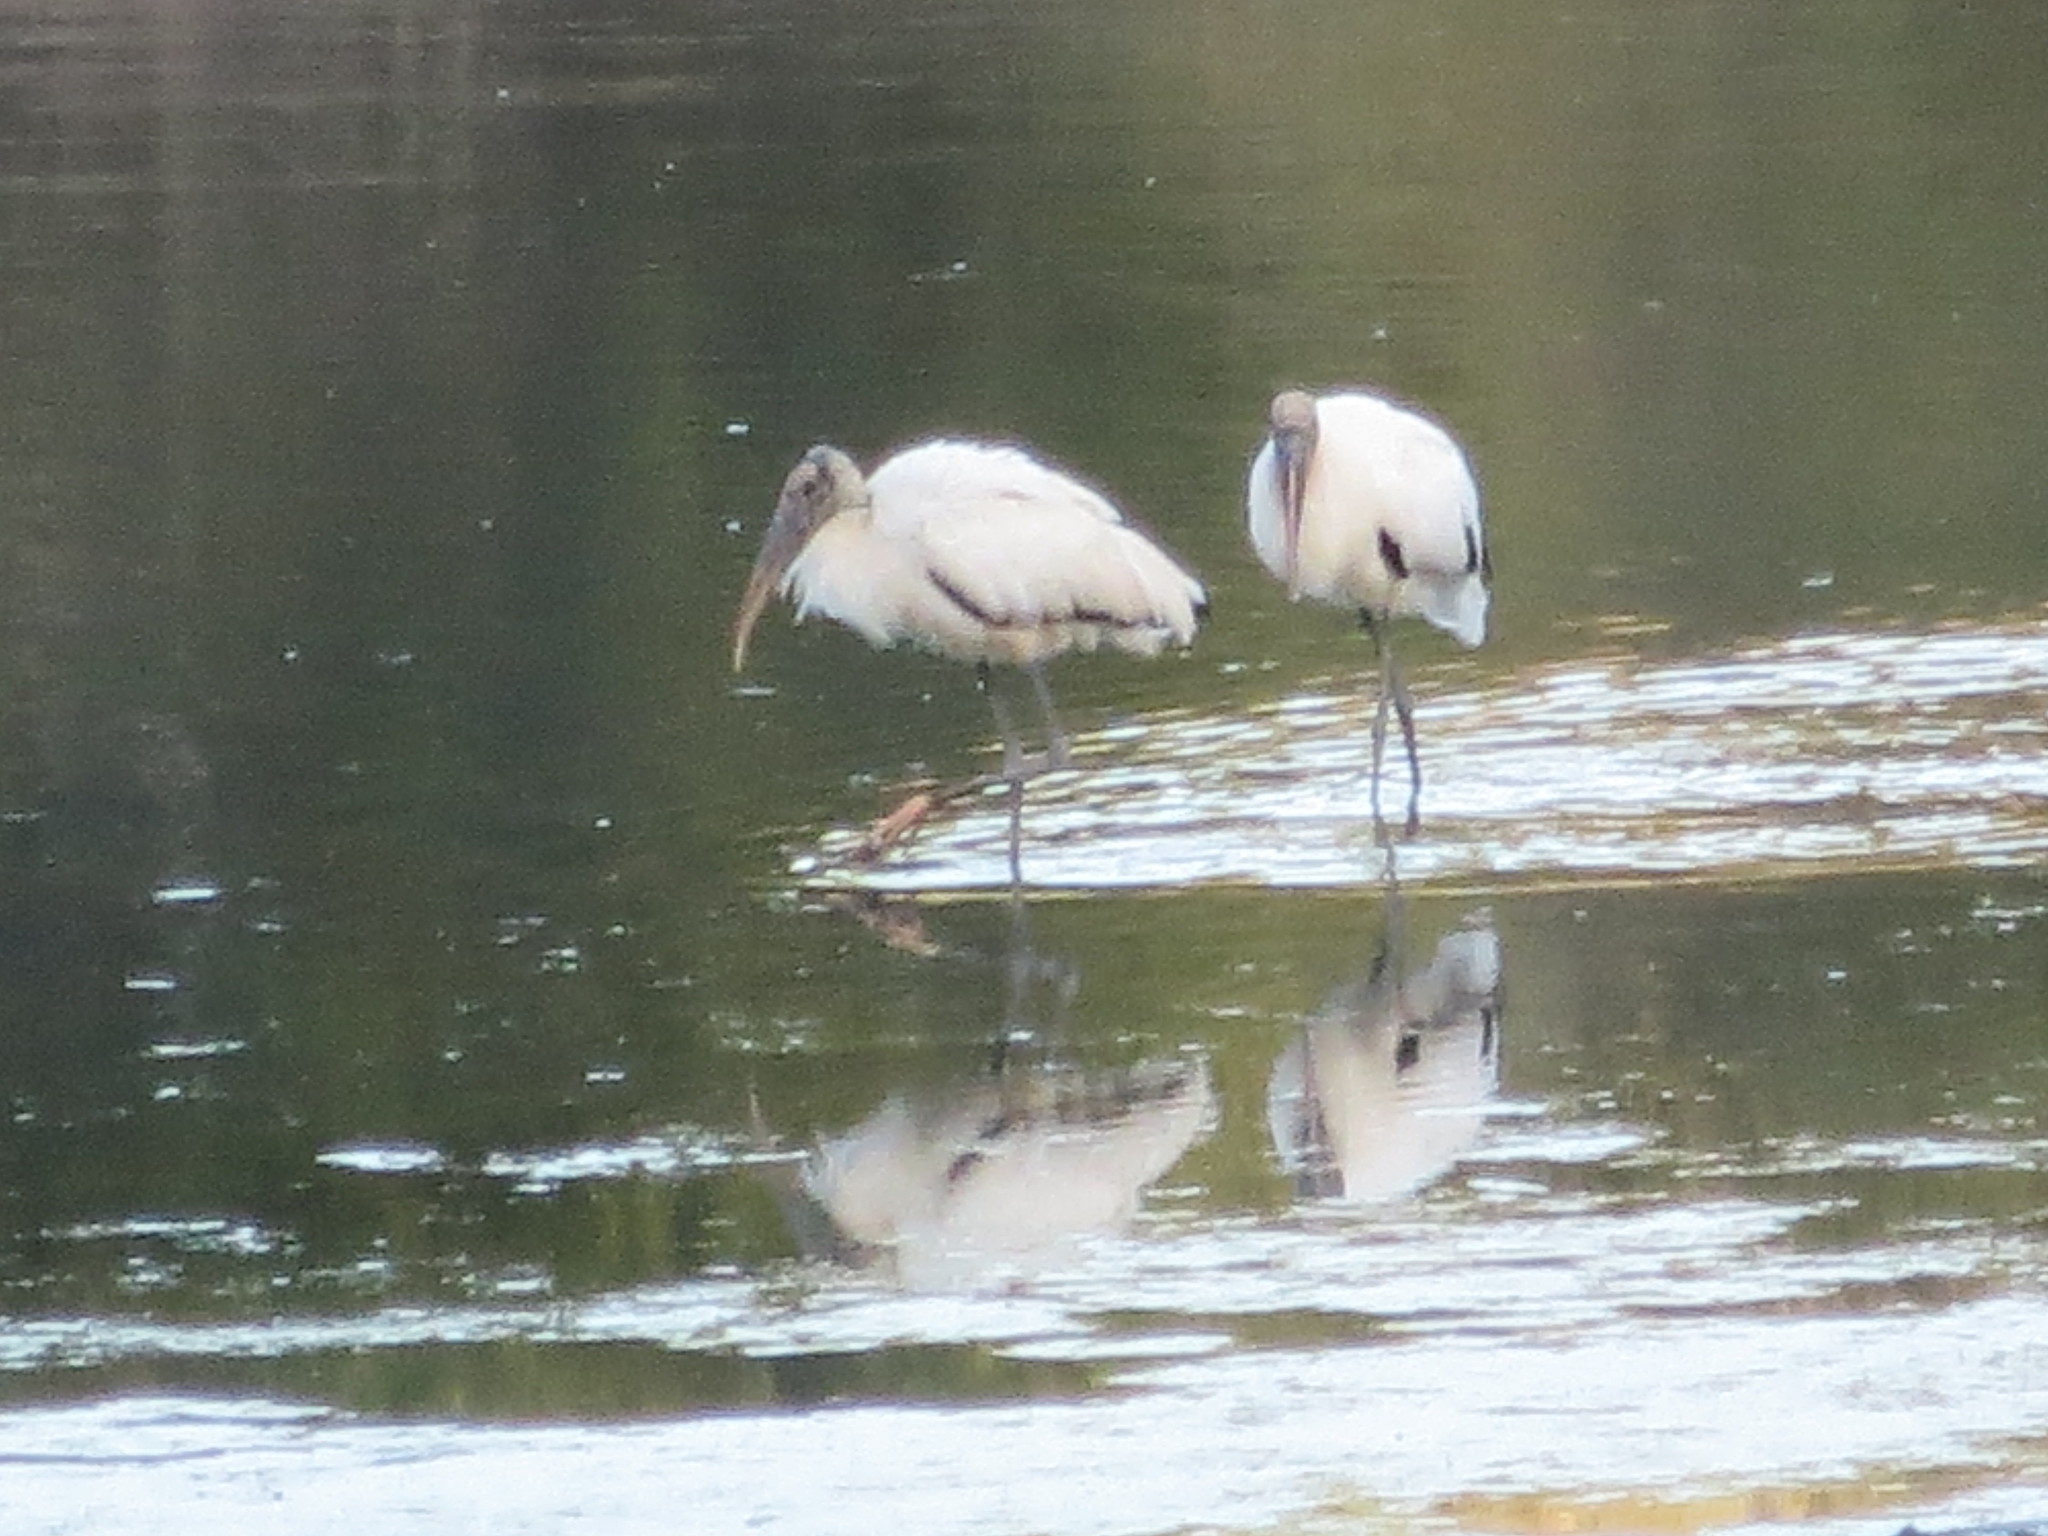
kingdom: Animalia
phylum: Chordata
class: Aves
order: Ciconiiformes
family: Ciconiidae
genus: Mycteria
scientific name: Mycteria americana
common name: Wood stork
